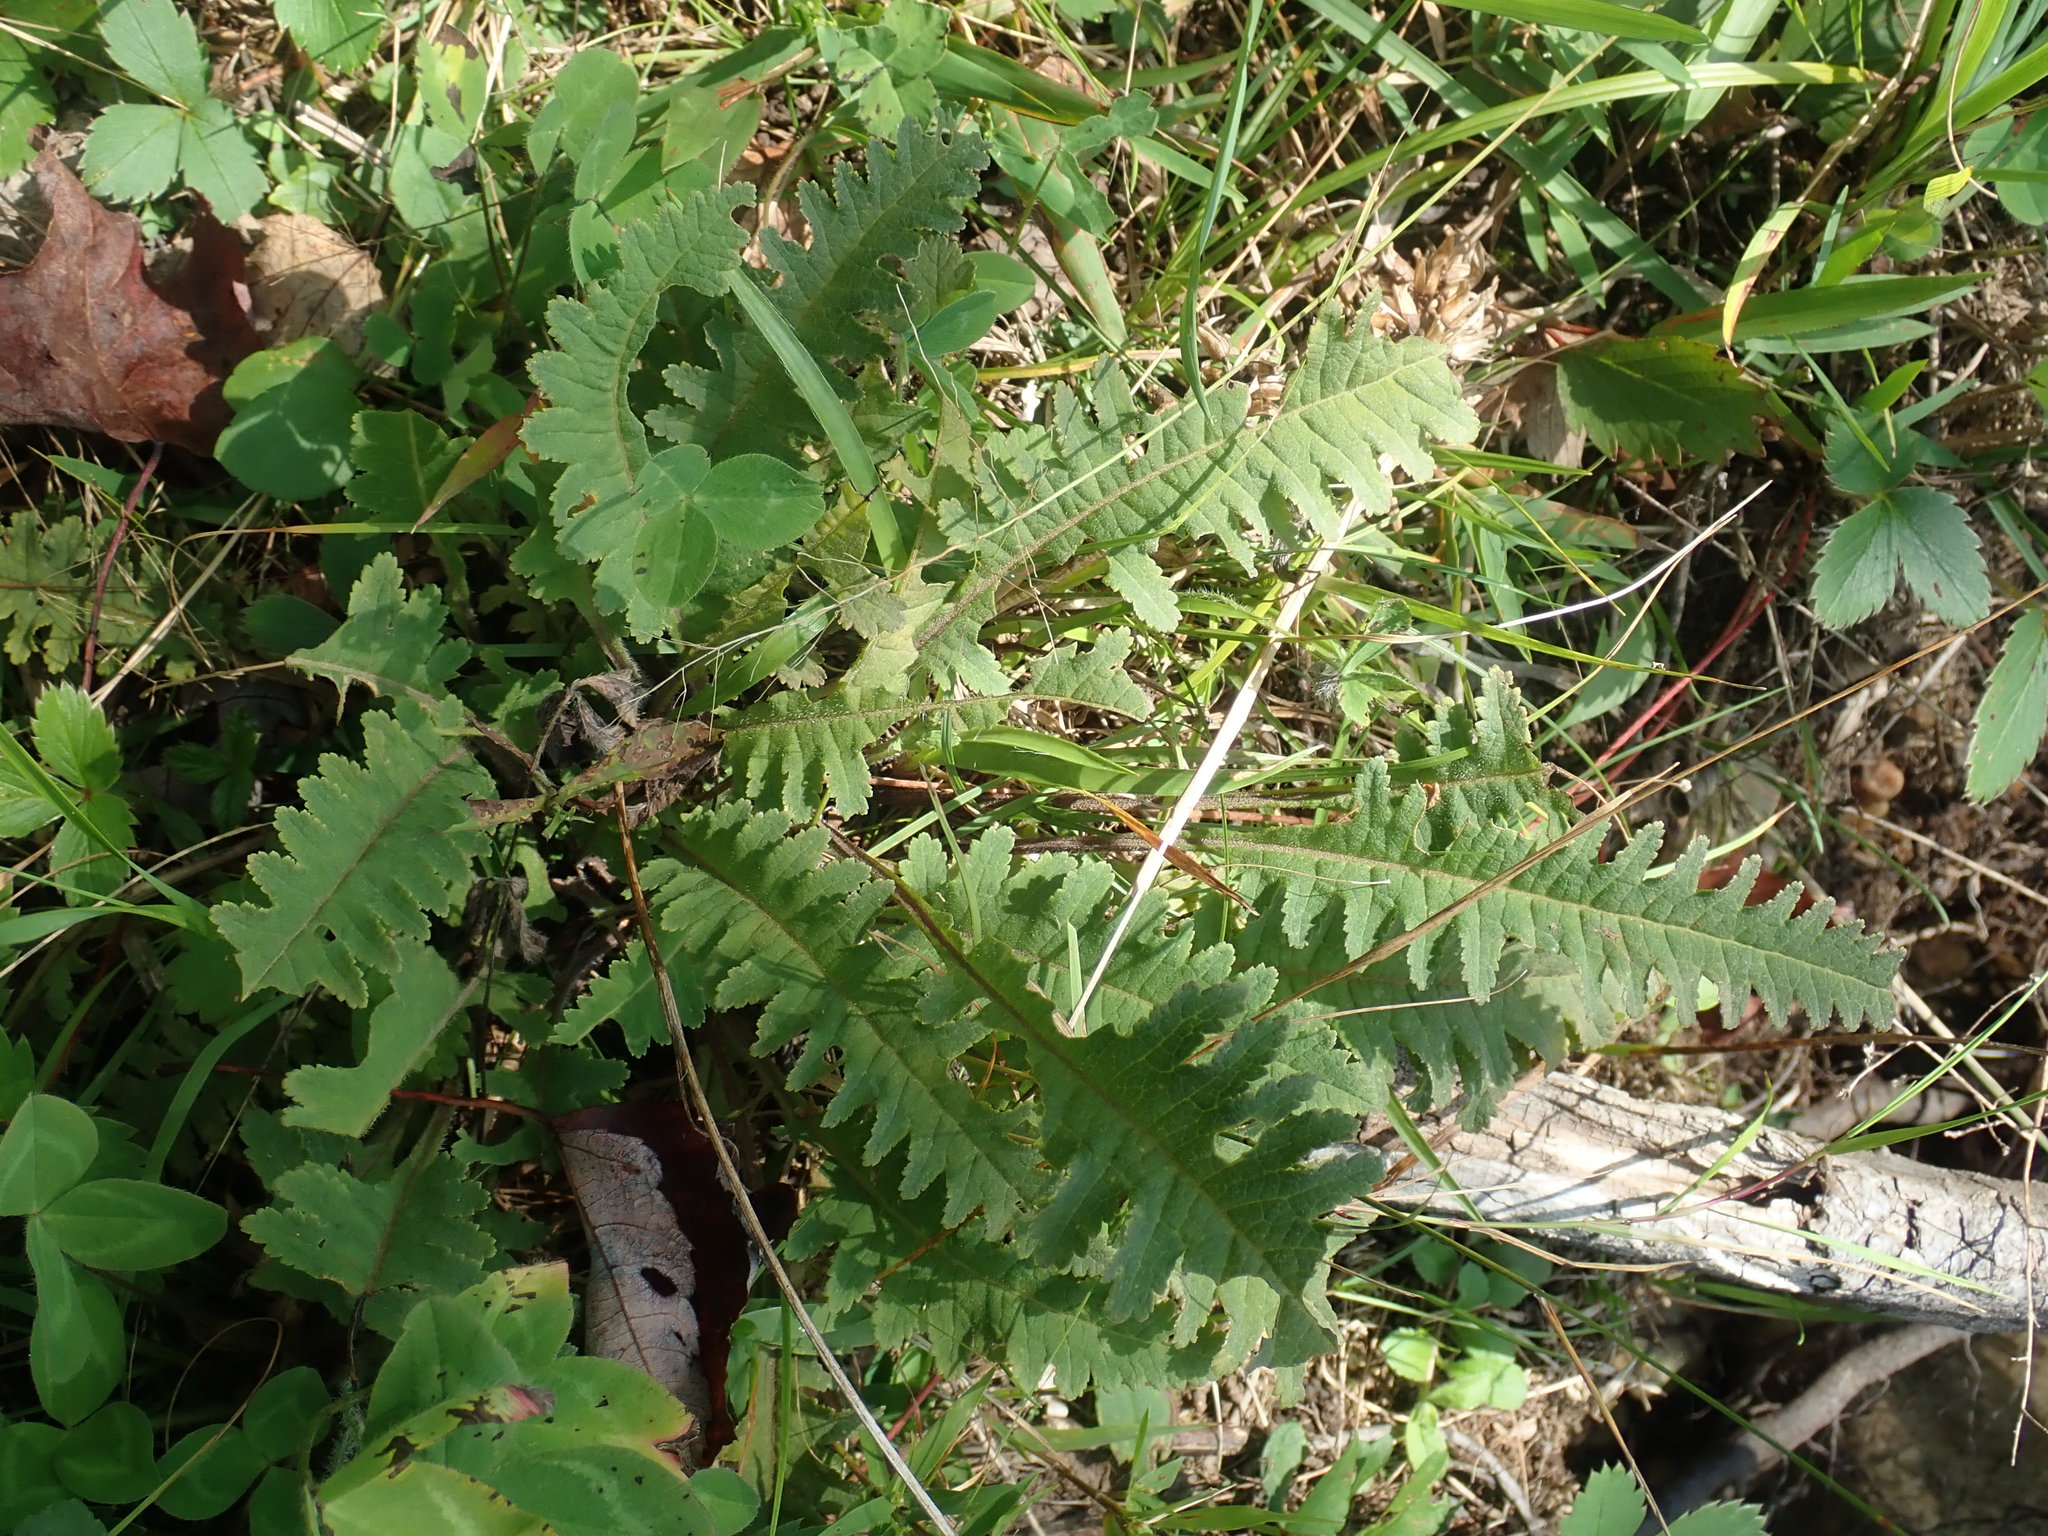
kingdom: Plantae
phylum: Tracheophyta
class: Magnoliopsida
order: Lamiales
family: Orobanchaceae
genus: Pedicularis
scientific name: Pedicularis canadensis
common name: Early lousewort
